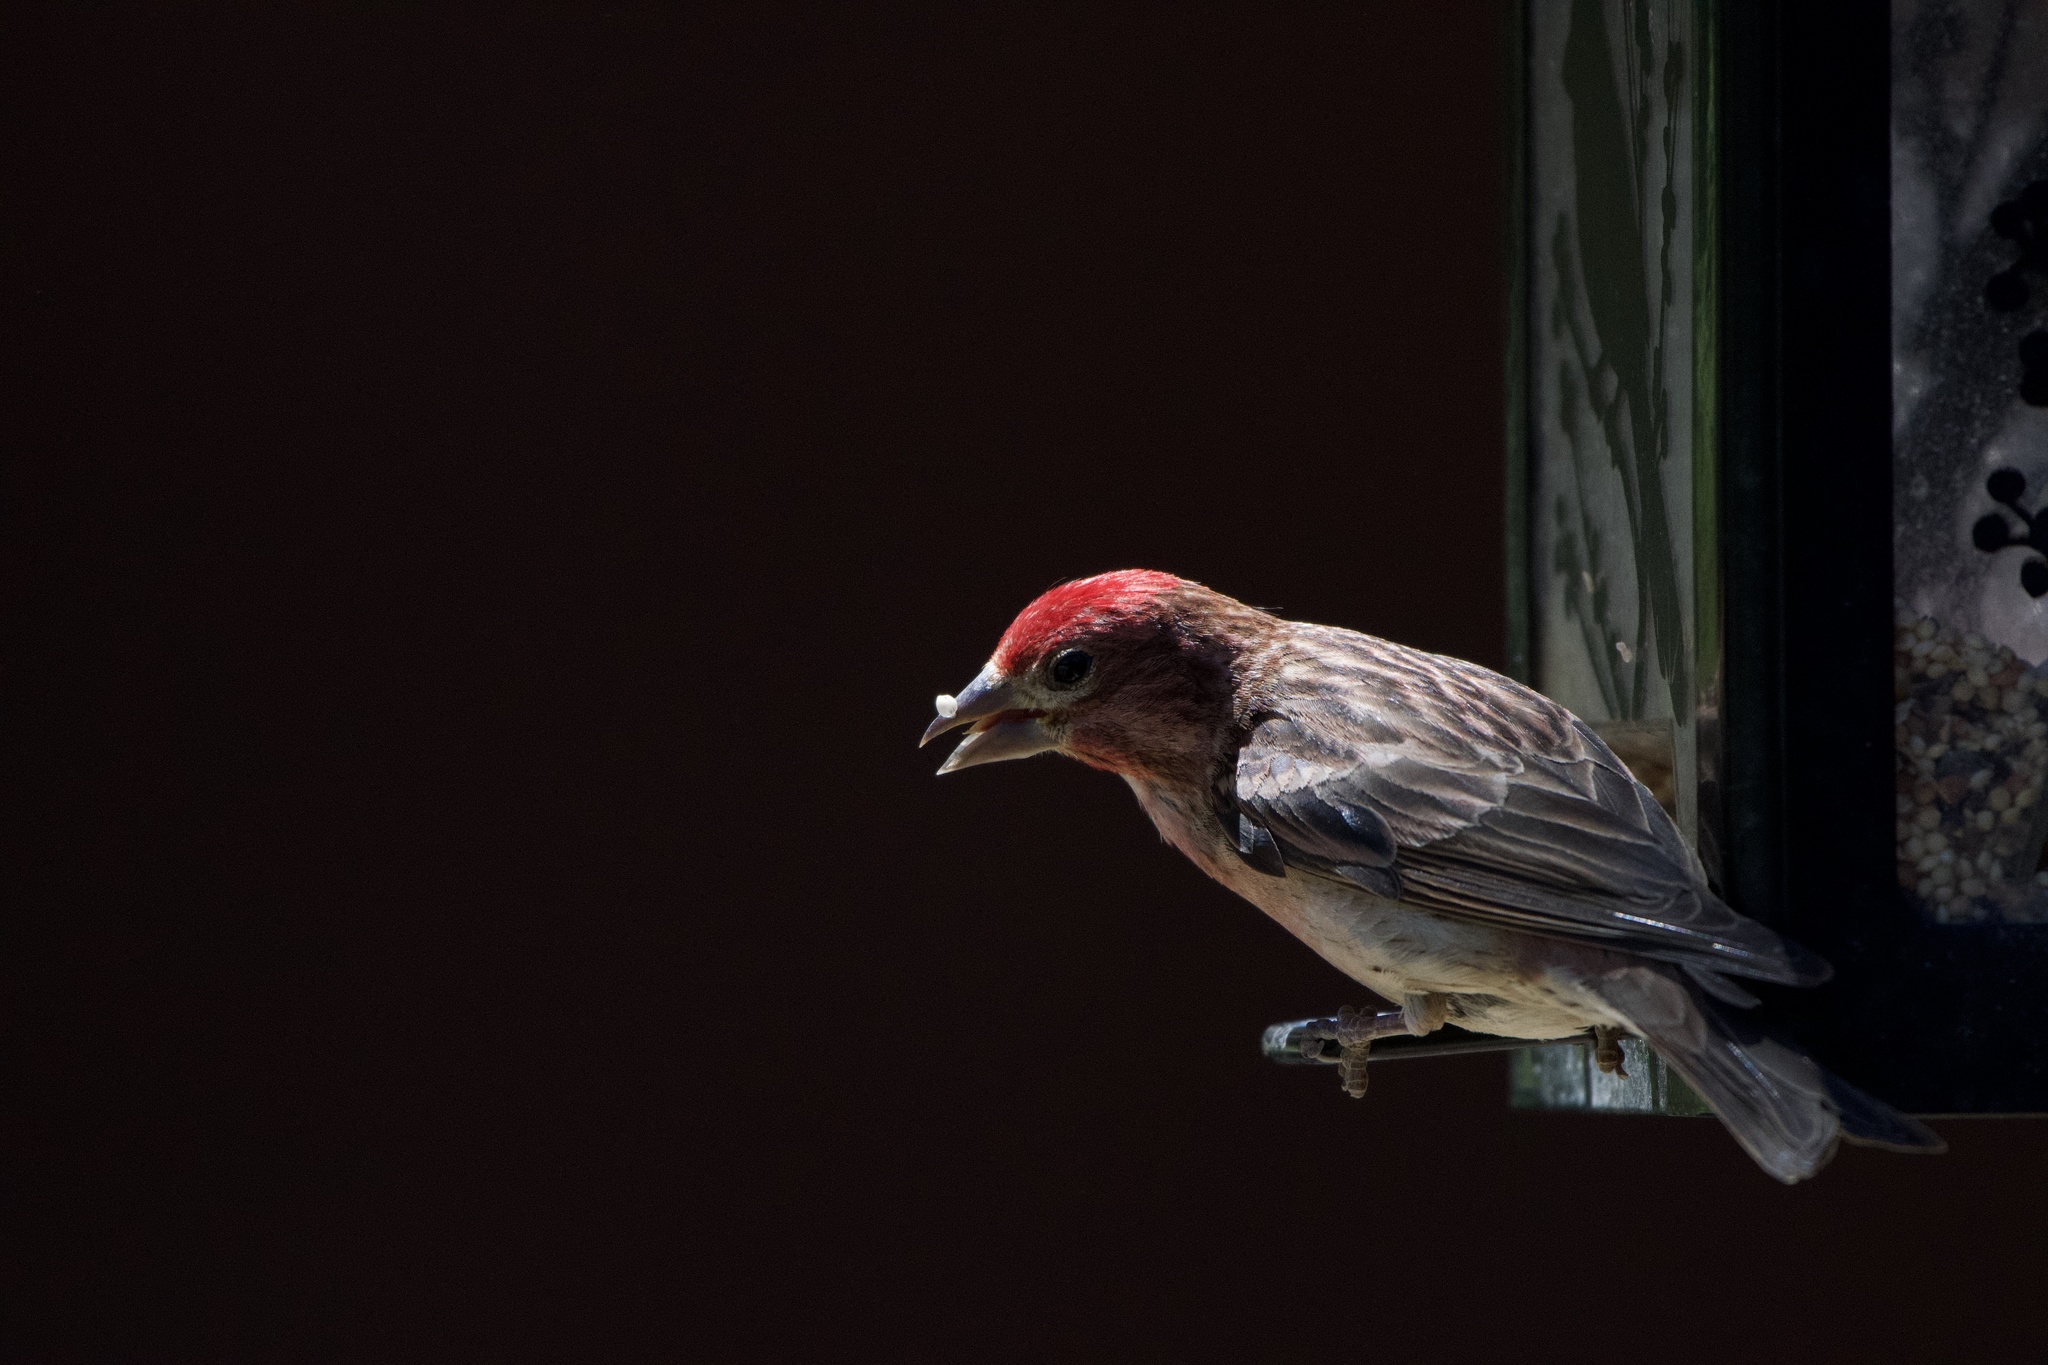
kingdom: Animalia
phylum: Chordata
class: Aves
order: Passeriformes
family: Fringillidae
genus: Haemorhous
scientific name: Haemorhous cassinii
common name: Cassin's finch
